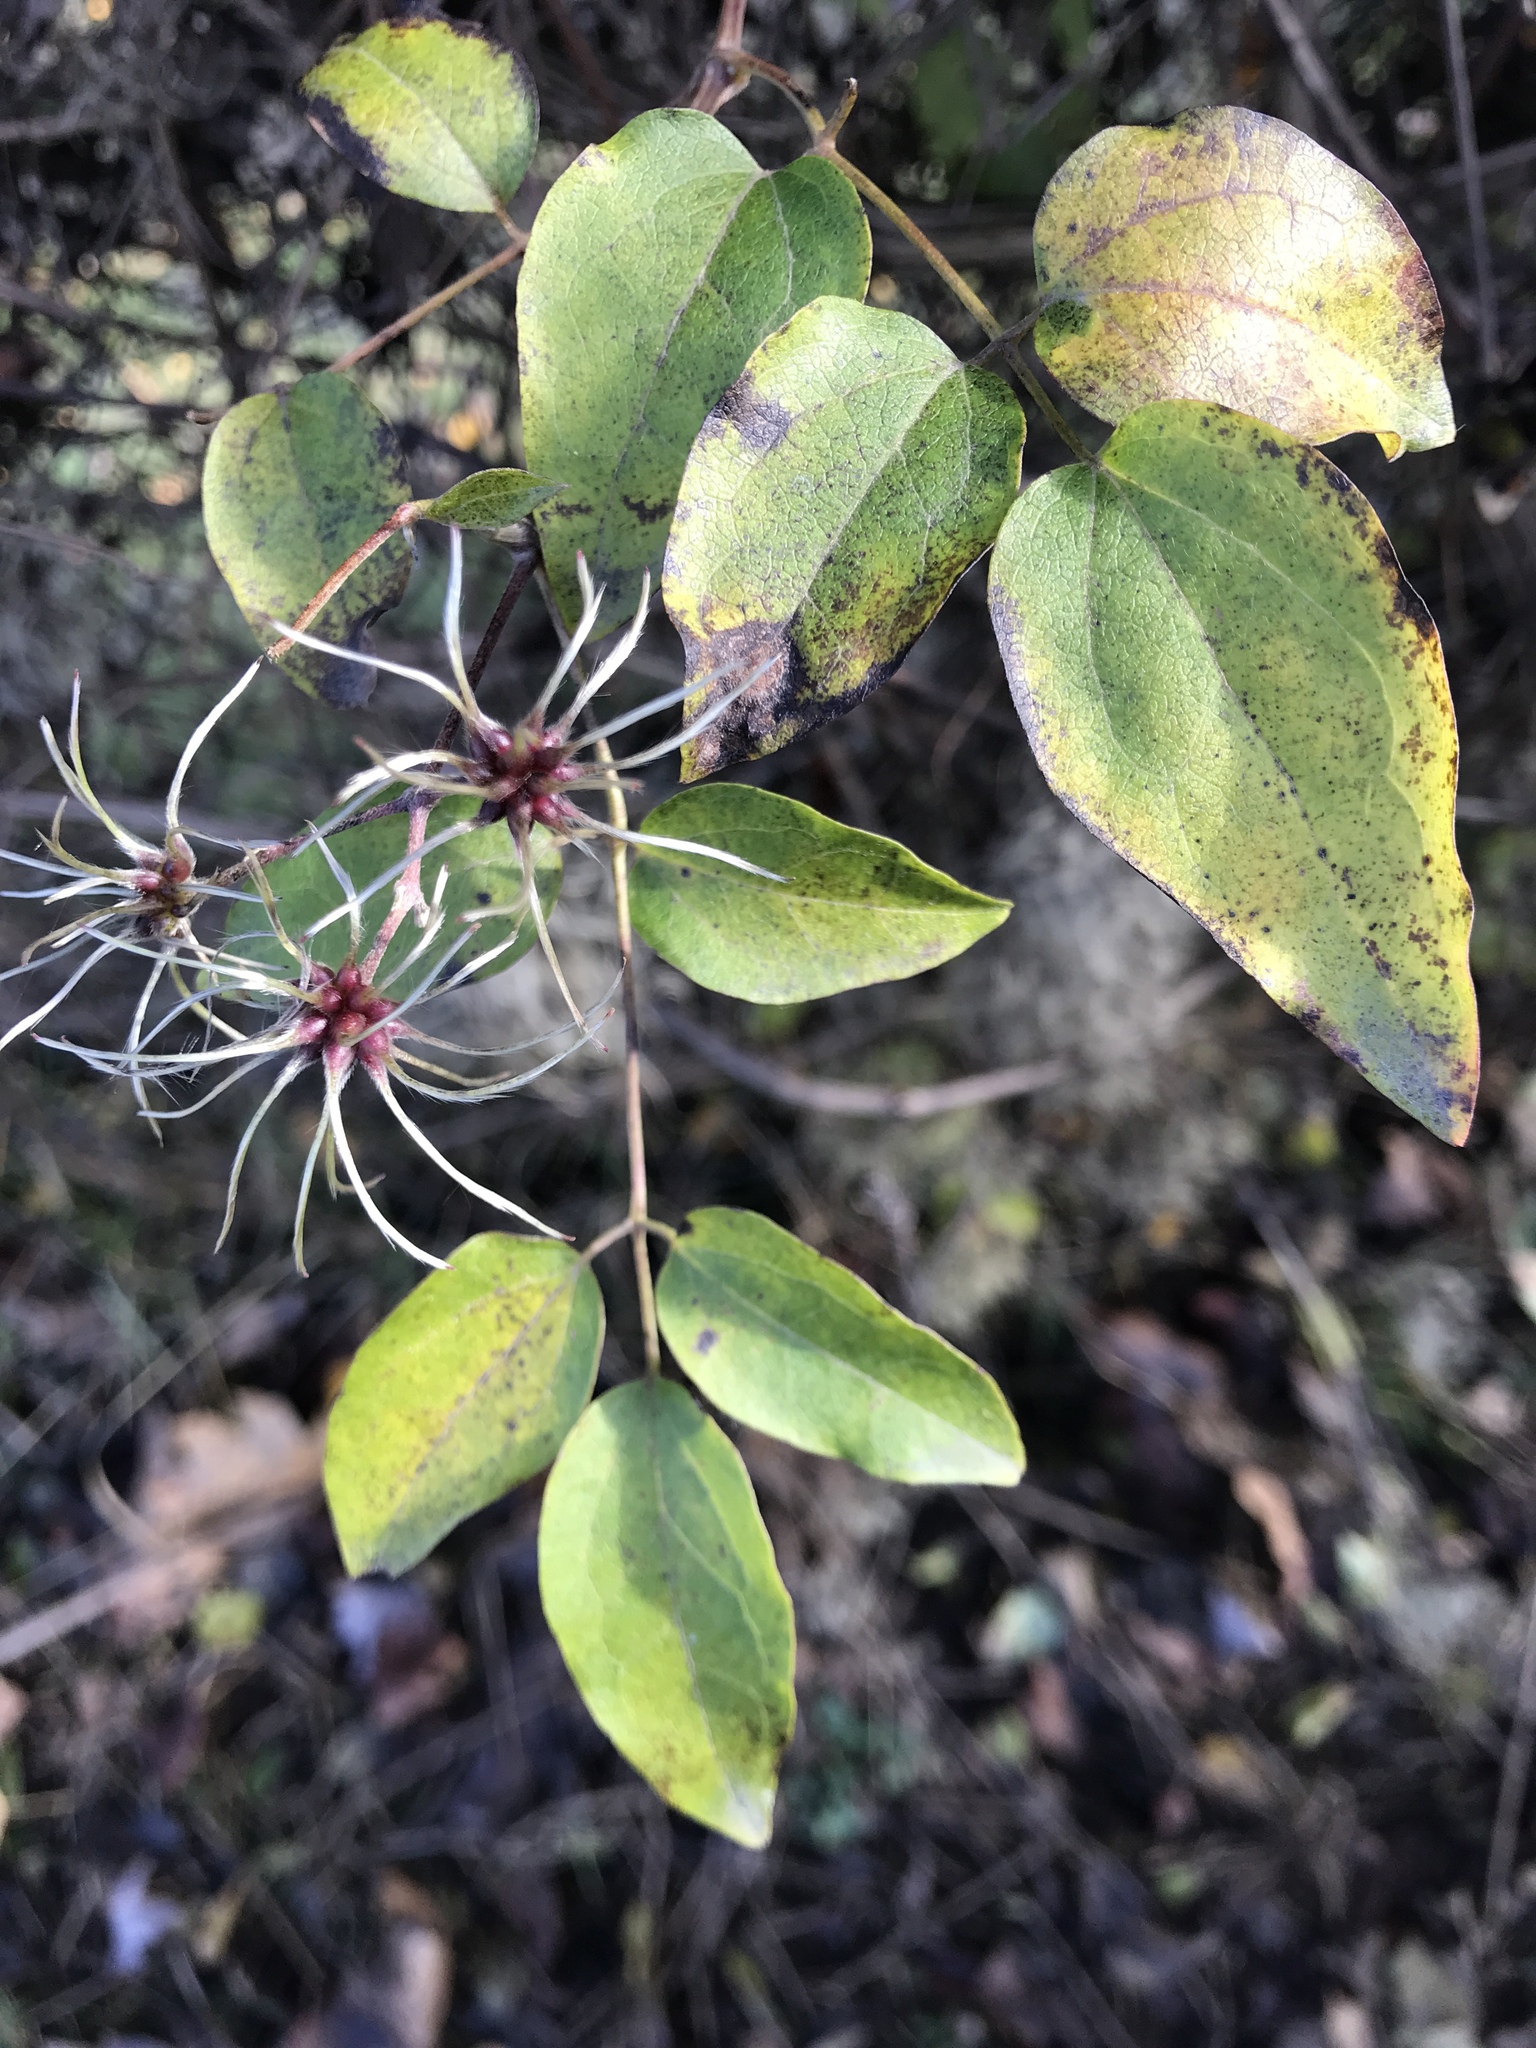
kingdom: Plantae
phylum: Tracheophyta
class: Magnoliopsida
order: Ranunculales
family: Ranunculaceae
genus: Clematis
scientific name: Clematis vitalba
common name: Evergreen clematis
